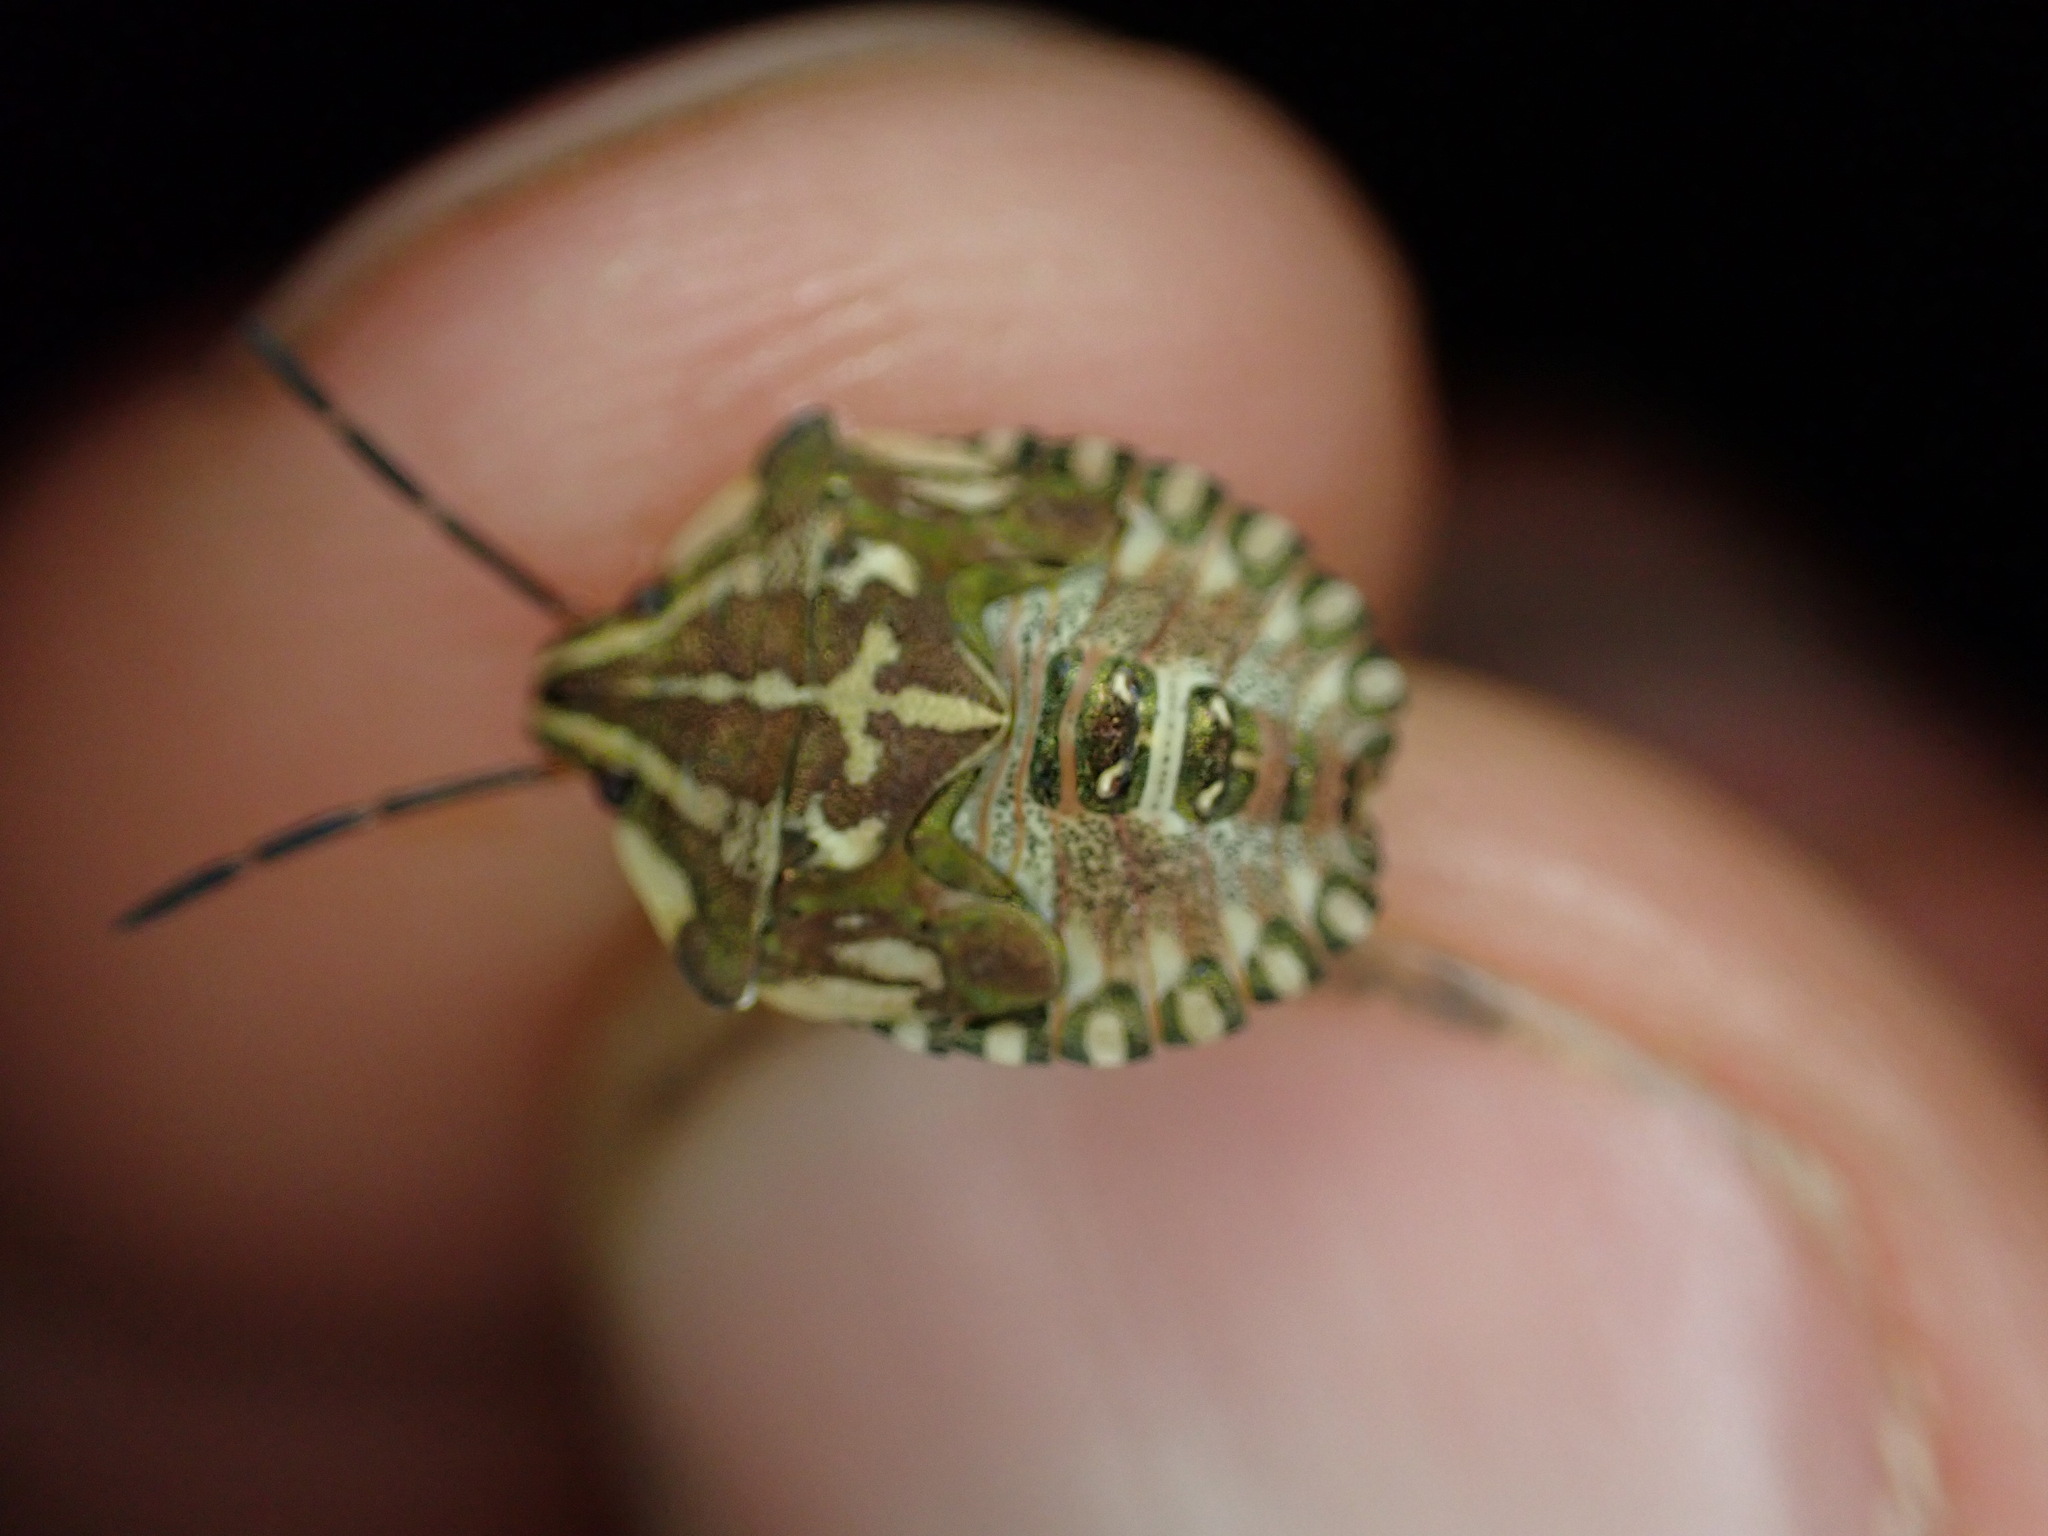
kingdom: Animalia
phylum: Arthropoda
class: Insecta
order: Hemiptera
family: Pentatomidae
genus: Carpocoris
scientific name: Carpocoris mediterraneus
